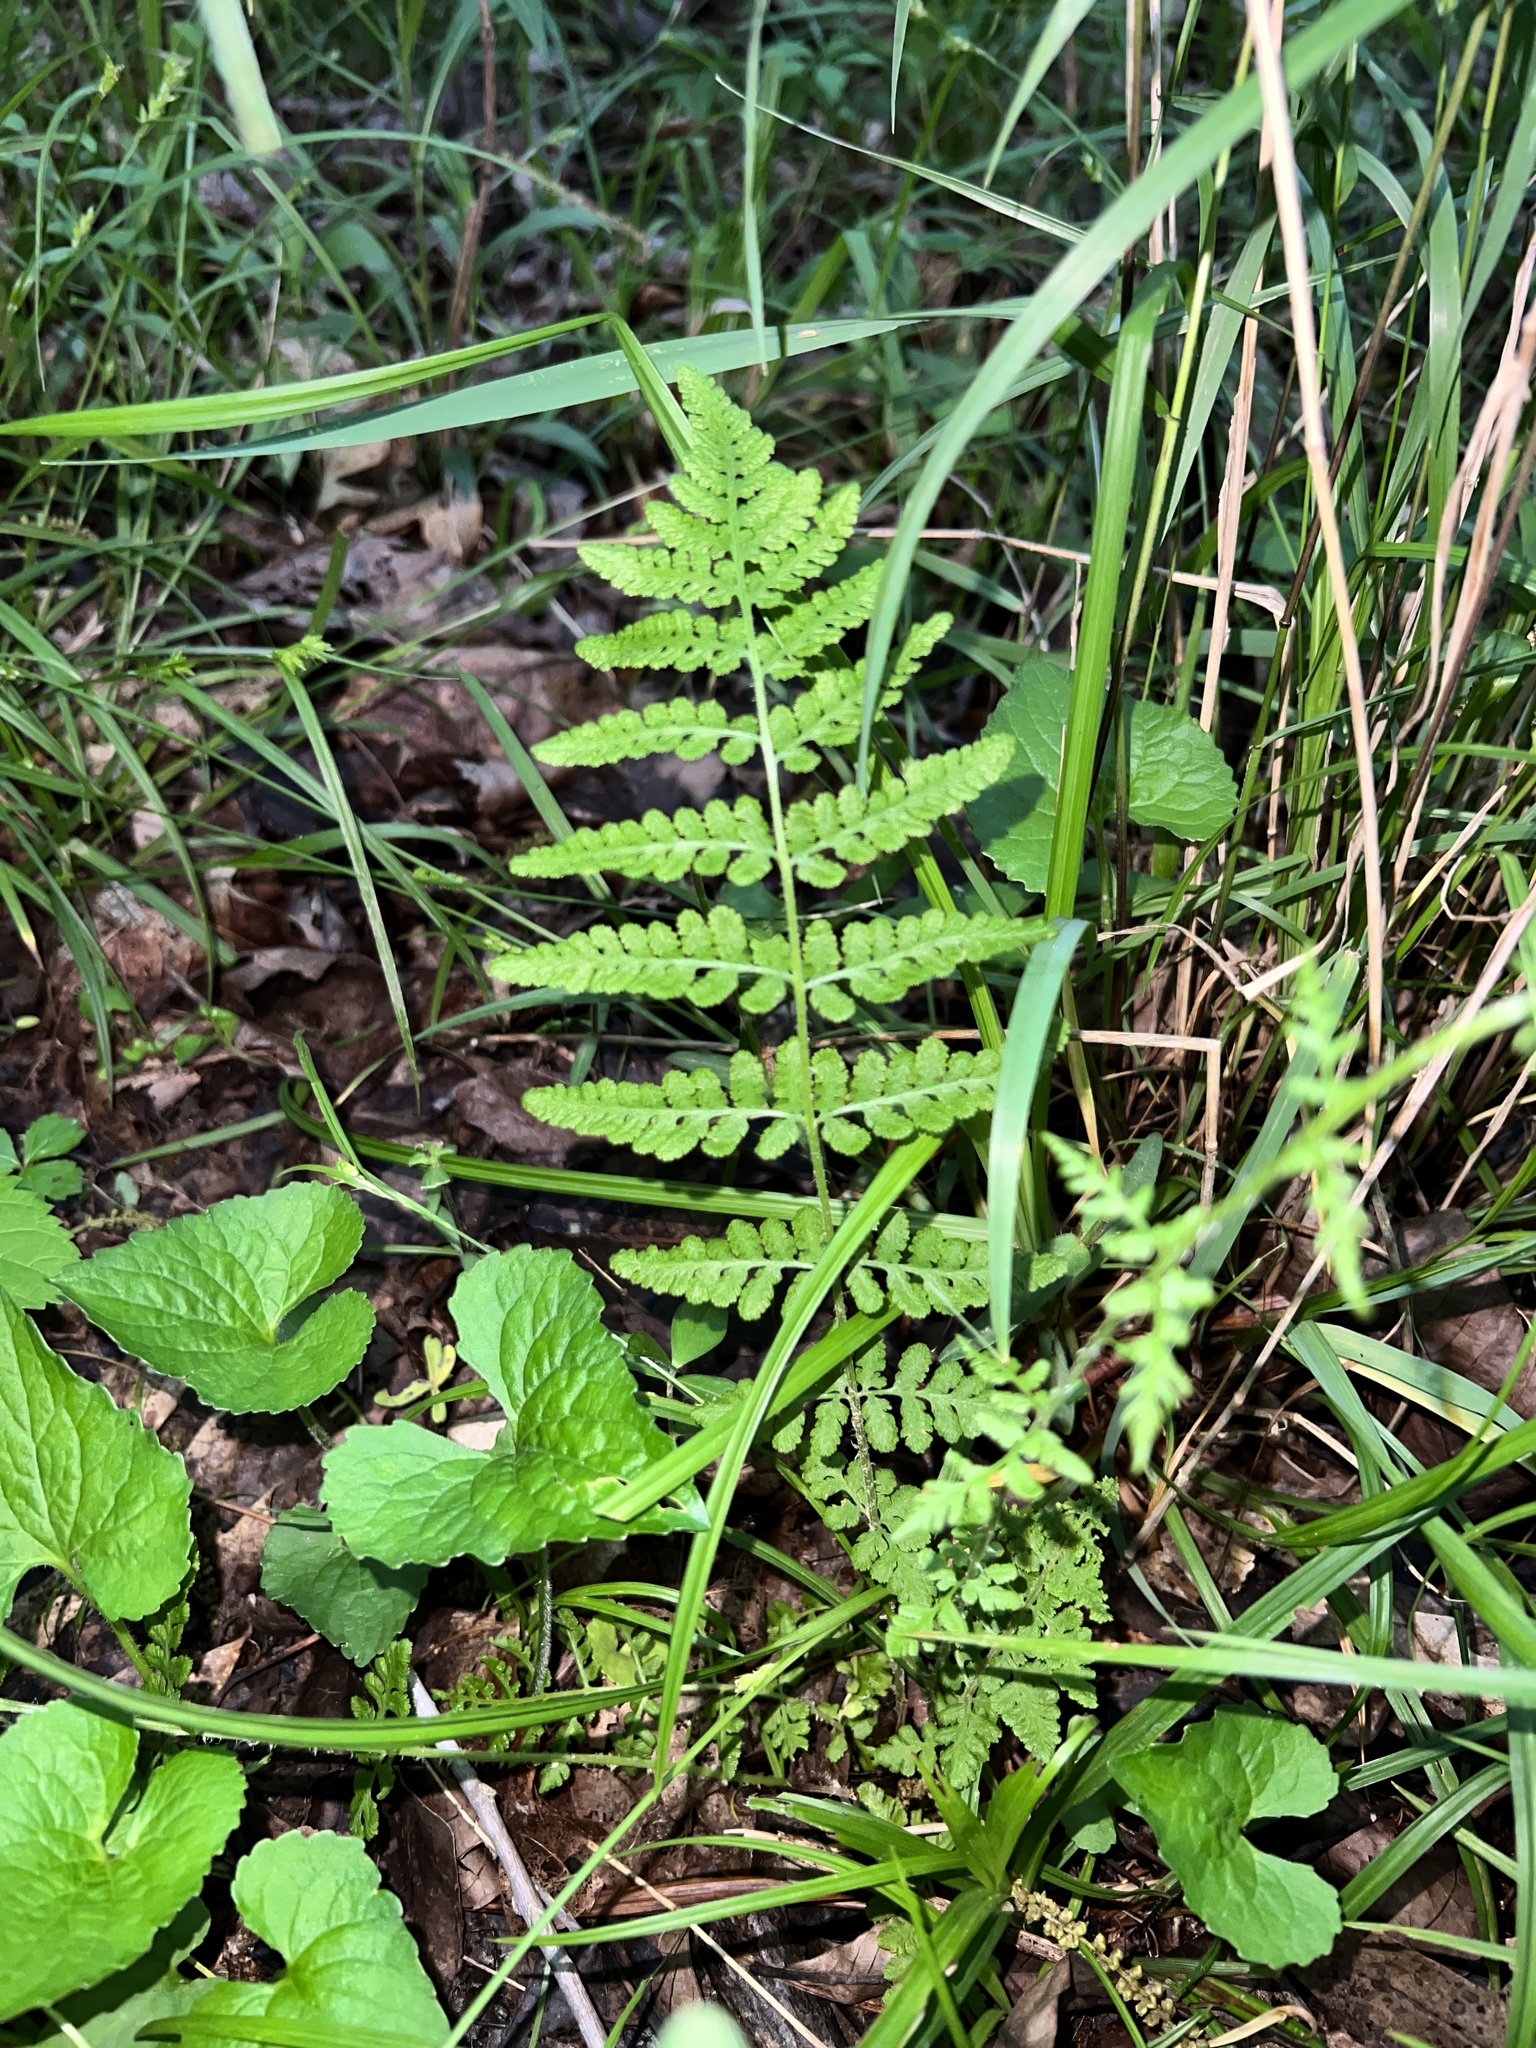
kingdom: Plantae
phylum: Tracheophyta
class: Polypodiopsida
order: Polypodiales
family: Woodsiaceae
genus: Physematium
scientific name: Physematium obtusum
